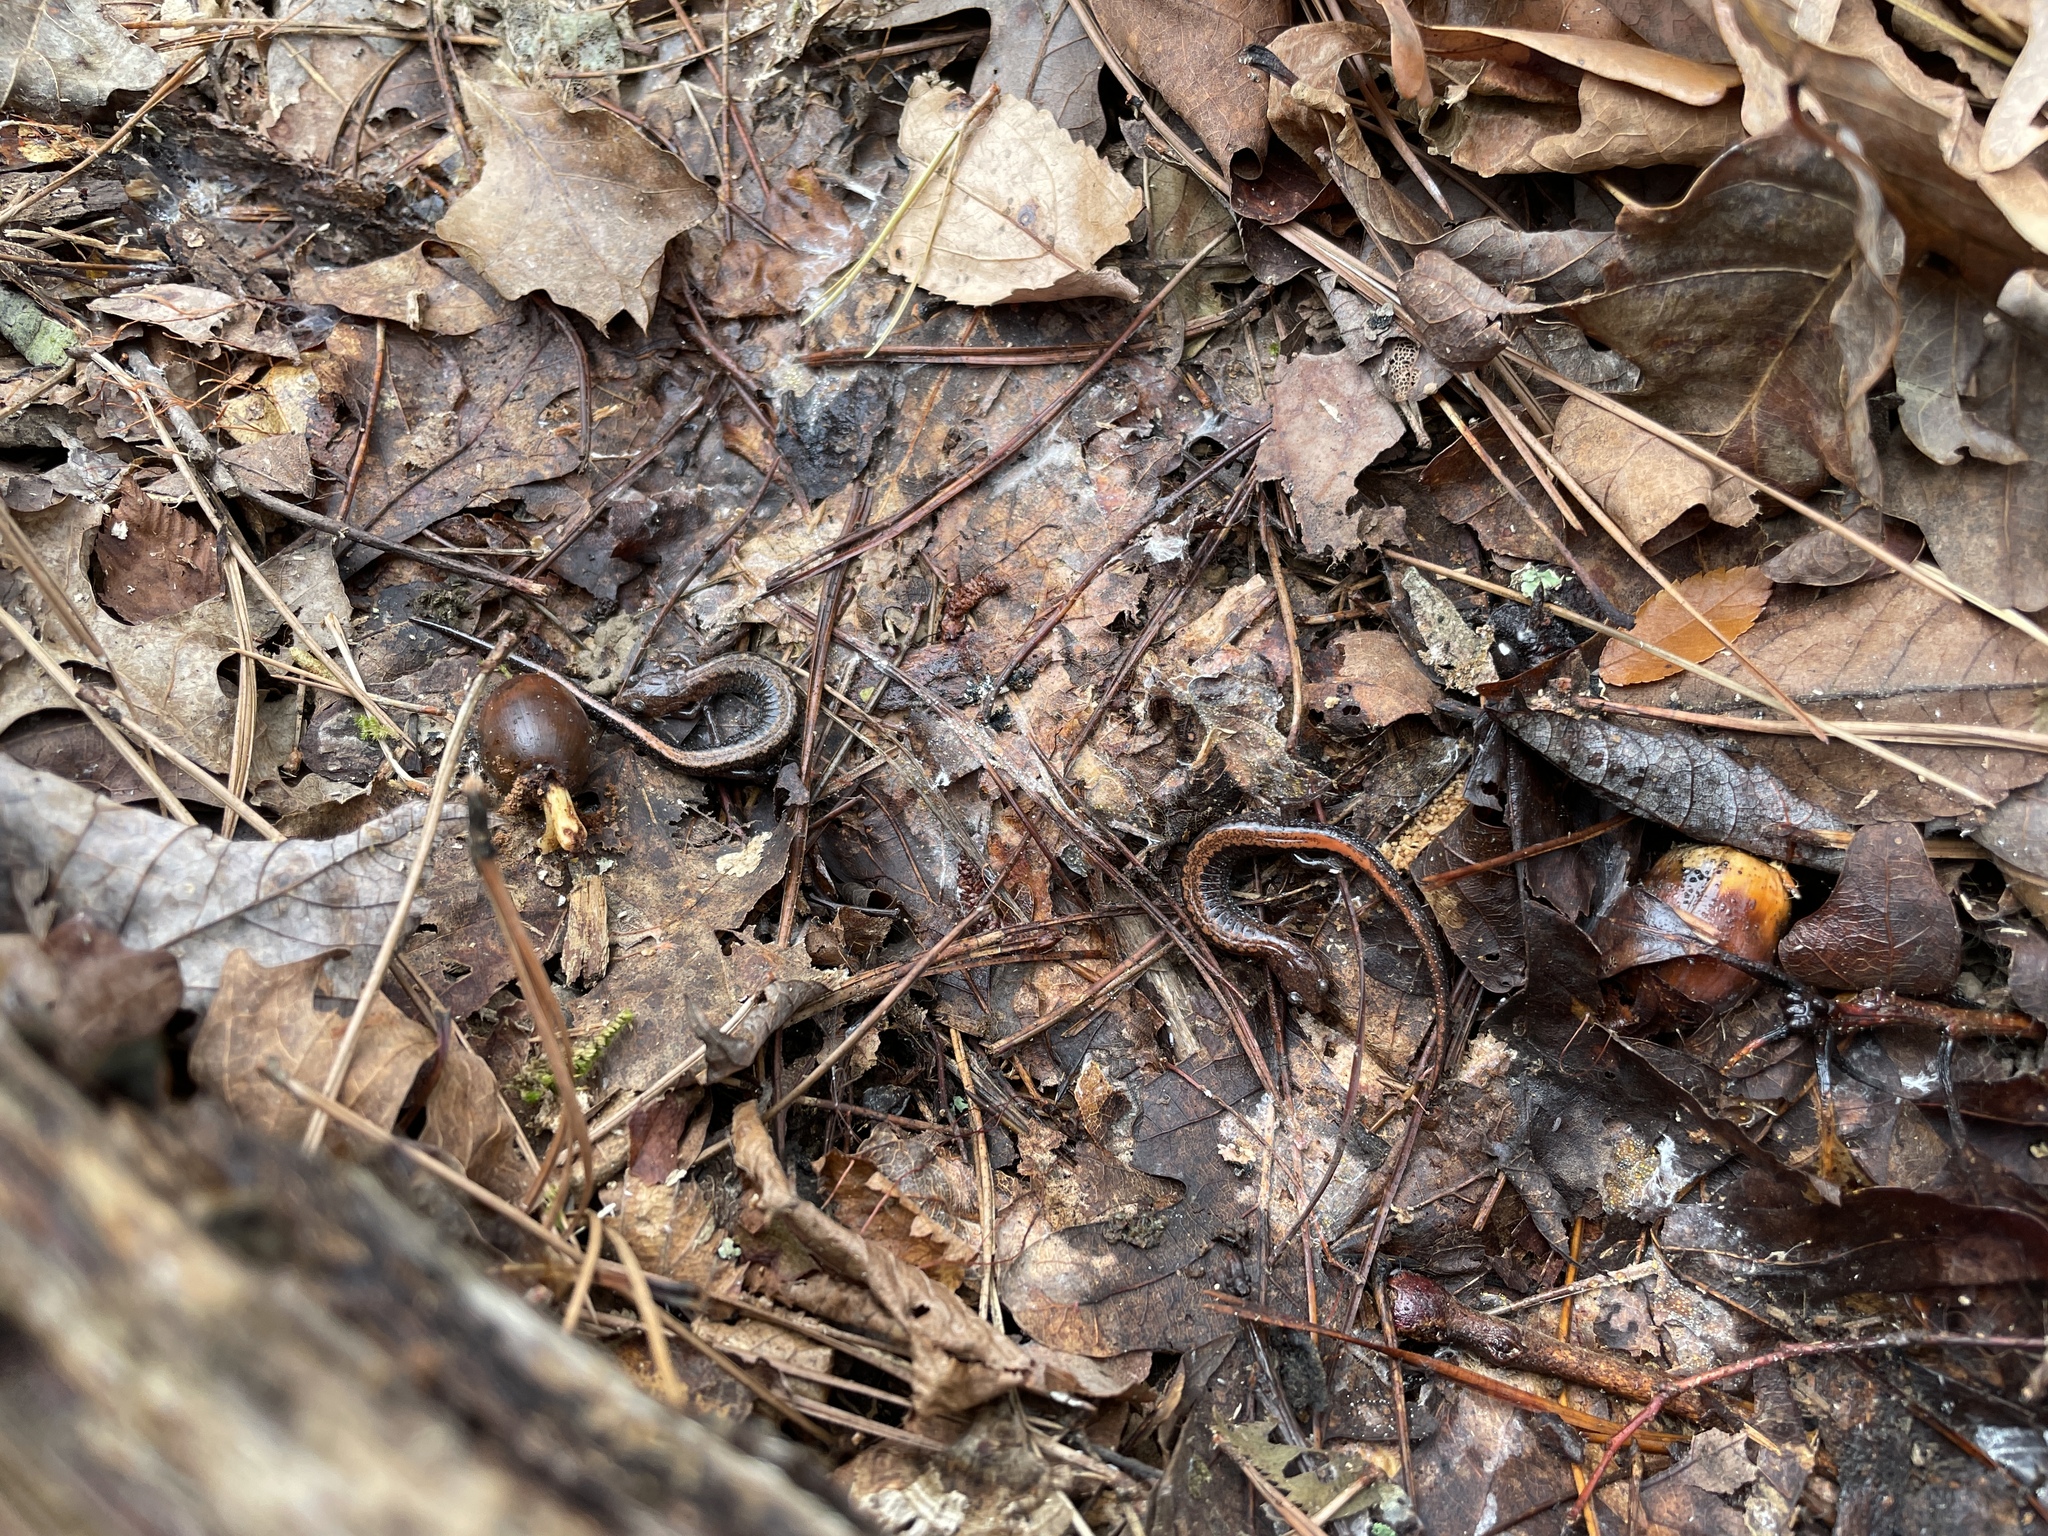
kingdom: Animalia
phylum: Chordata
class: Amphibia
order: Caudata
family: Plethodontidae
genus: Plethodon
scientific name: Plethodon serratus
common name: Southern red-backed salamander
